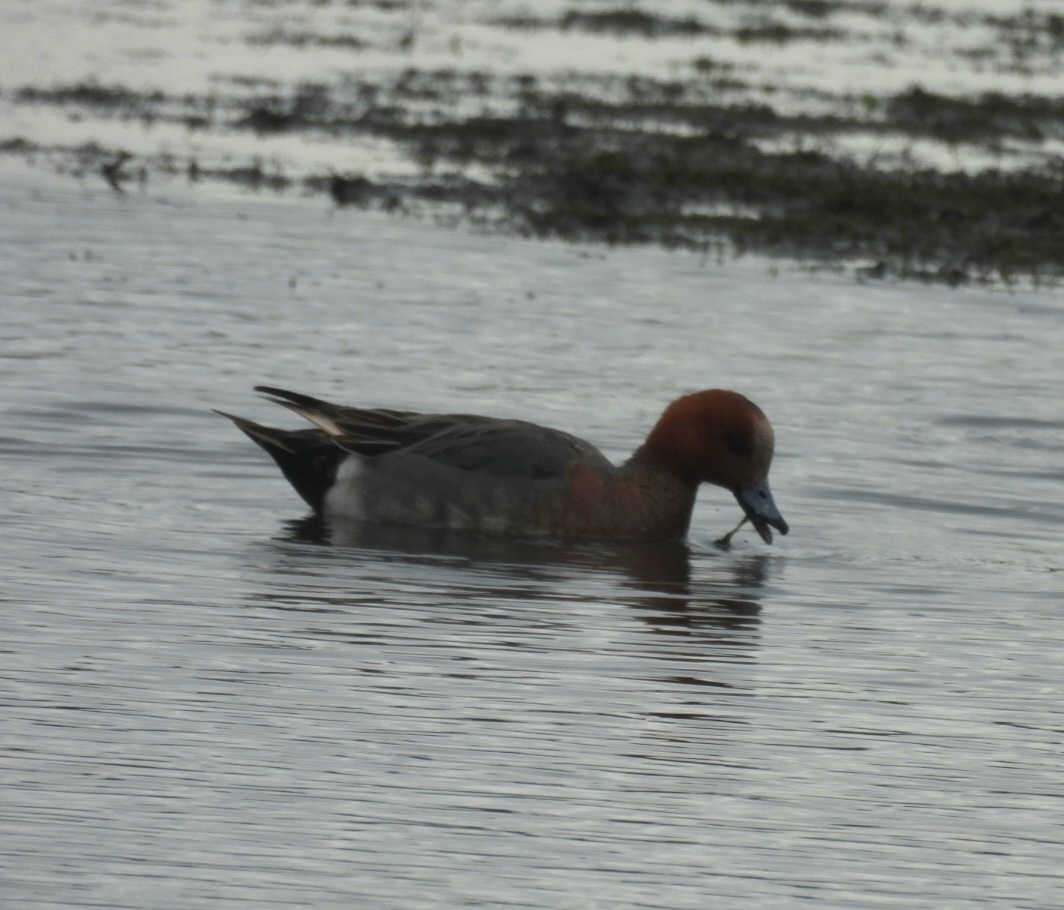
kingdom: Animalia
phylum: Chordata
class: Aves
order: Anseriformes
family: Anatidae
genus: Mareca
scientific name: Mareca penelope
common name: Eurasian wigeon
